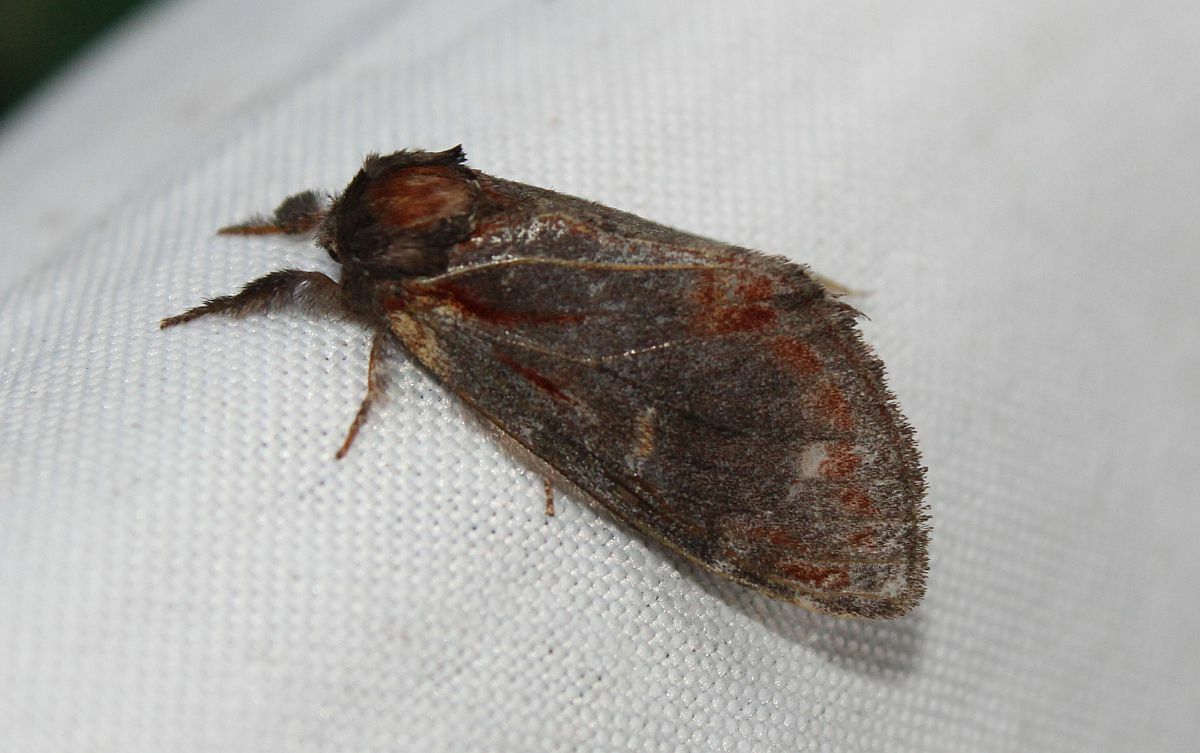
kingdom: Animalia
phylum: Arthropoda
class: Insecta
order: Lepidoptera
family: Notodontidae
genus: Notodonta
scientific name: Notodonta dromedarius
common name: Iron prominent
